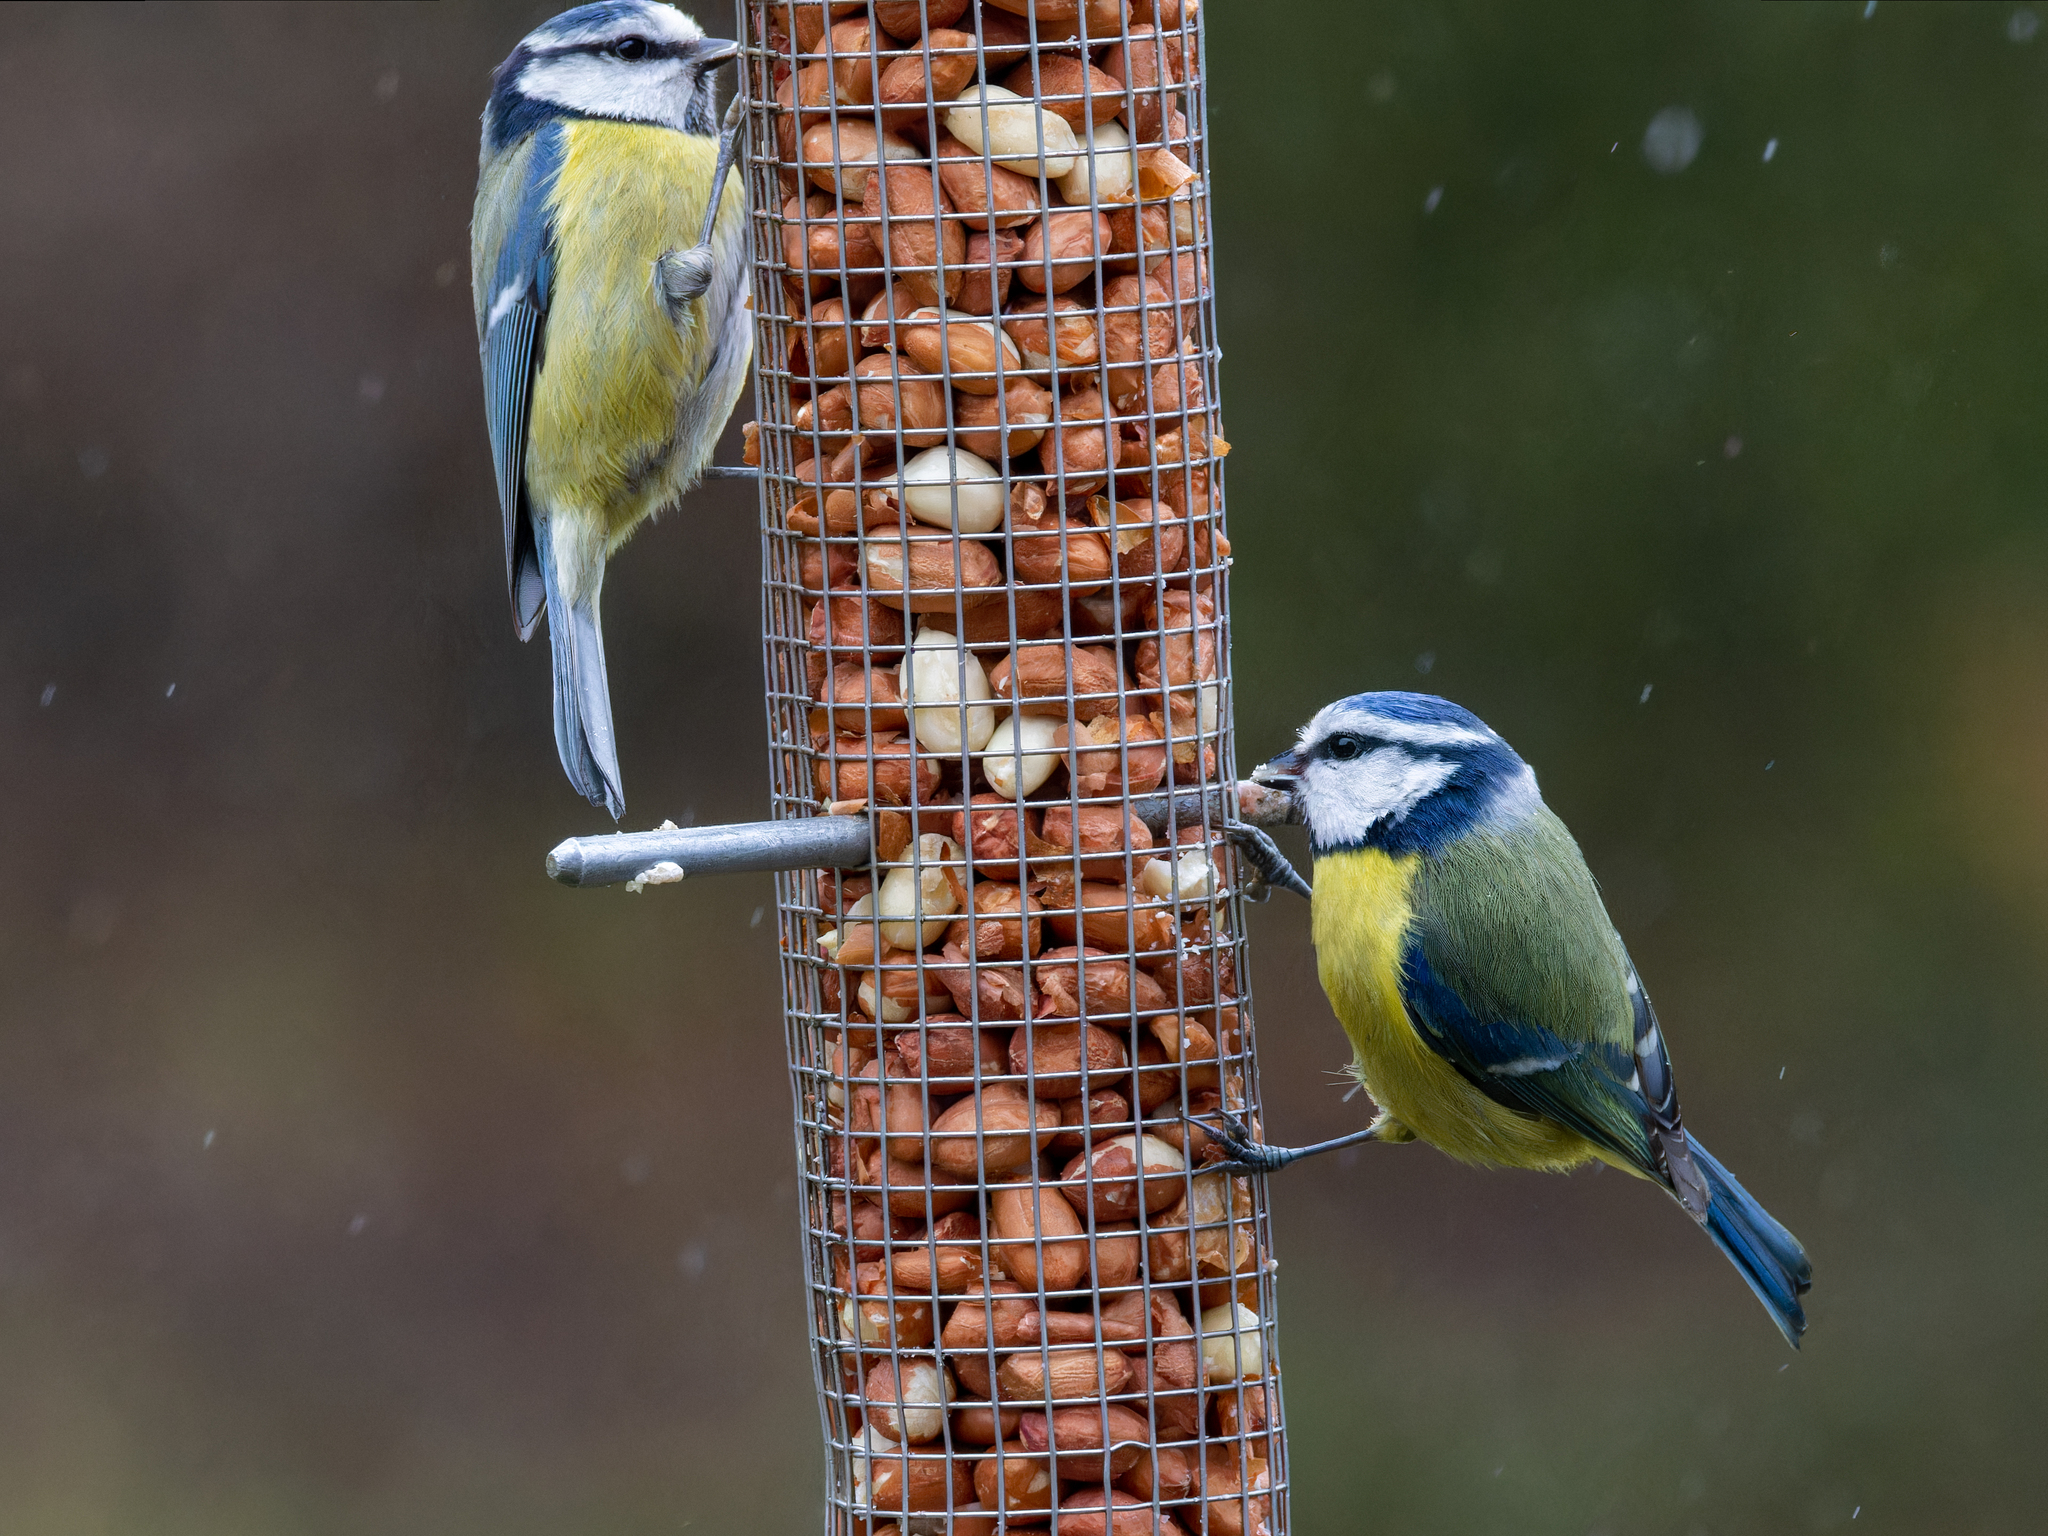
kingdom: Animalia
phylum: Chordata
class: Aves
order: Passeriformes
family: Paridae
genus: Cyanistes
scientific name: Cyanistes caeruleus
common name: Eurasian blue tit
